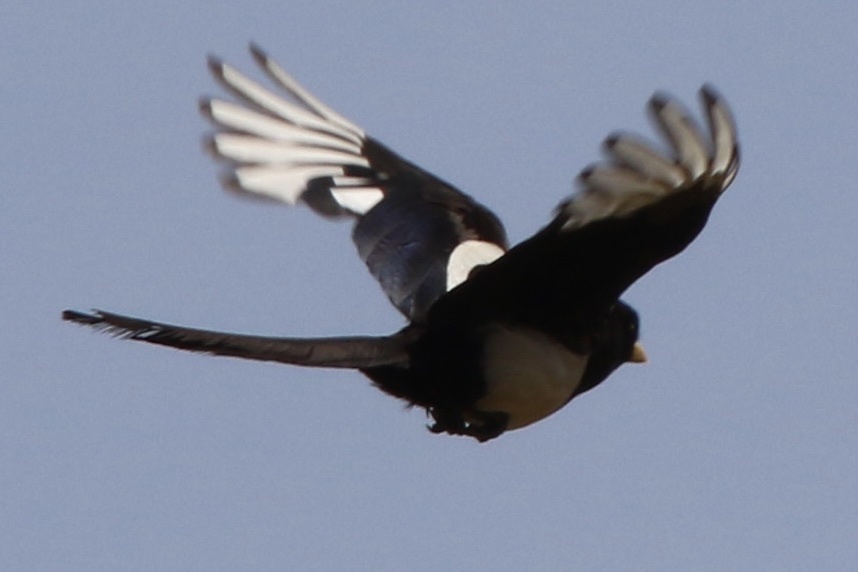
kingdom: Animalia
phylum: Chordata
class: Aves
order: Passeriformes
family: Corvidae
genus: Pica
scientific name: Pica nuttalli
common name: Yellow-billed magpie
